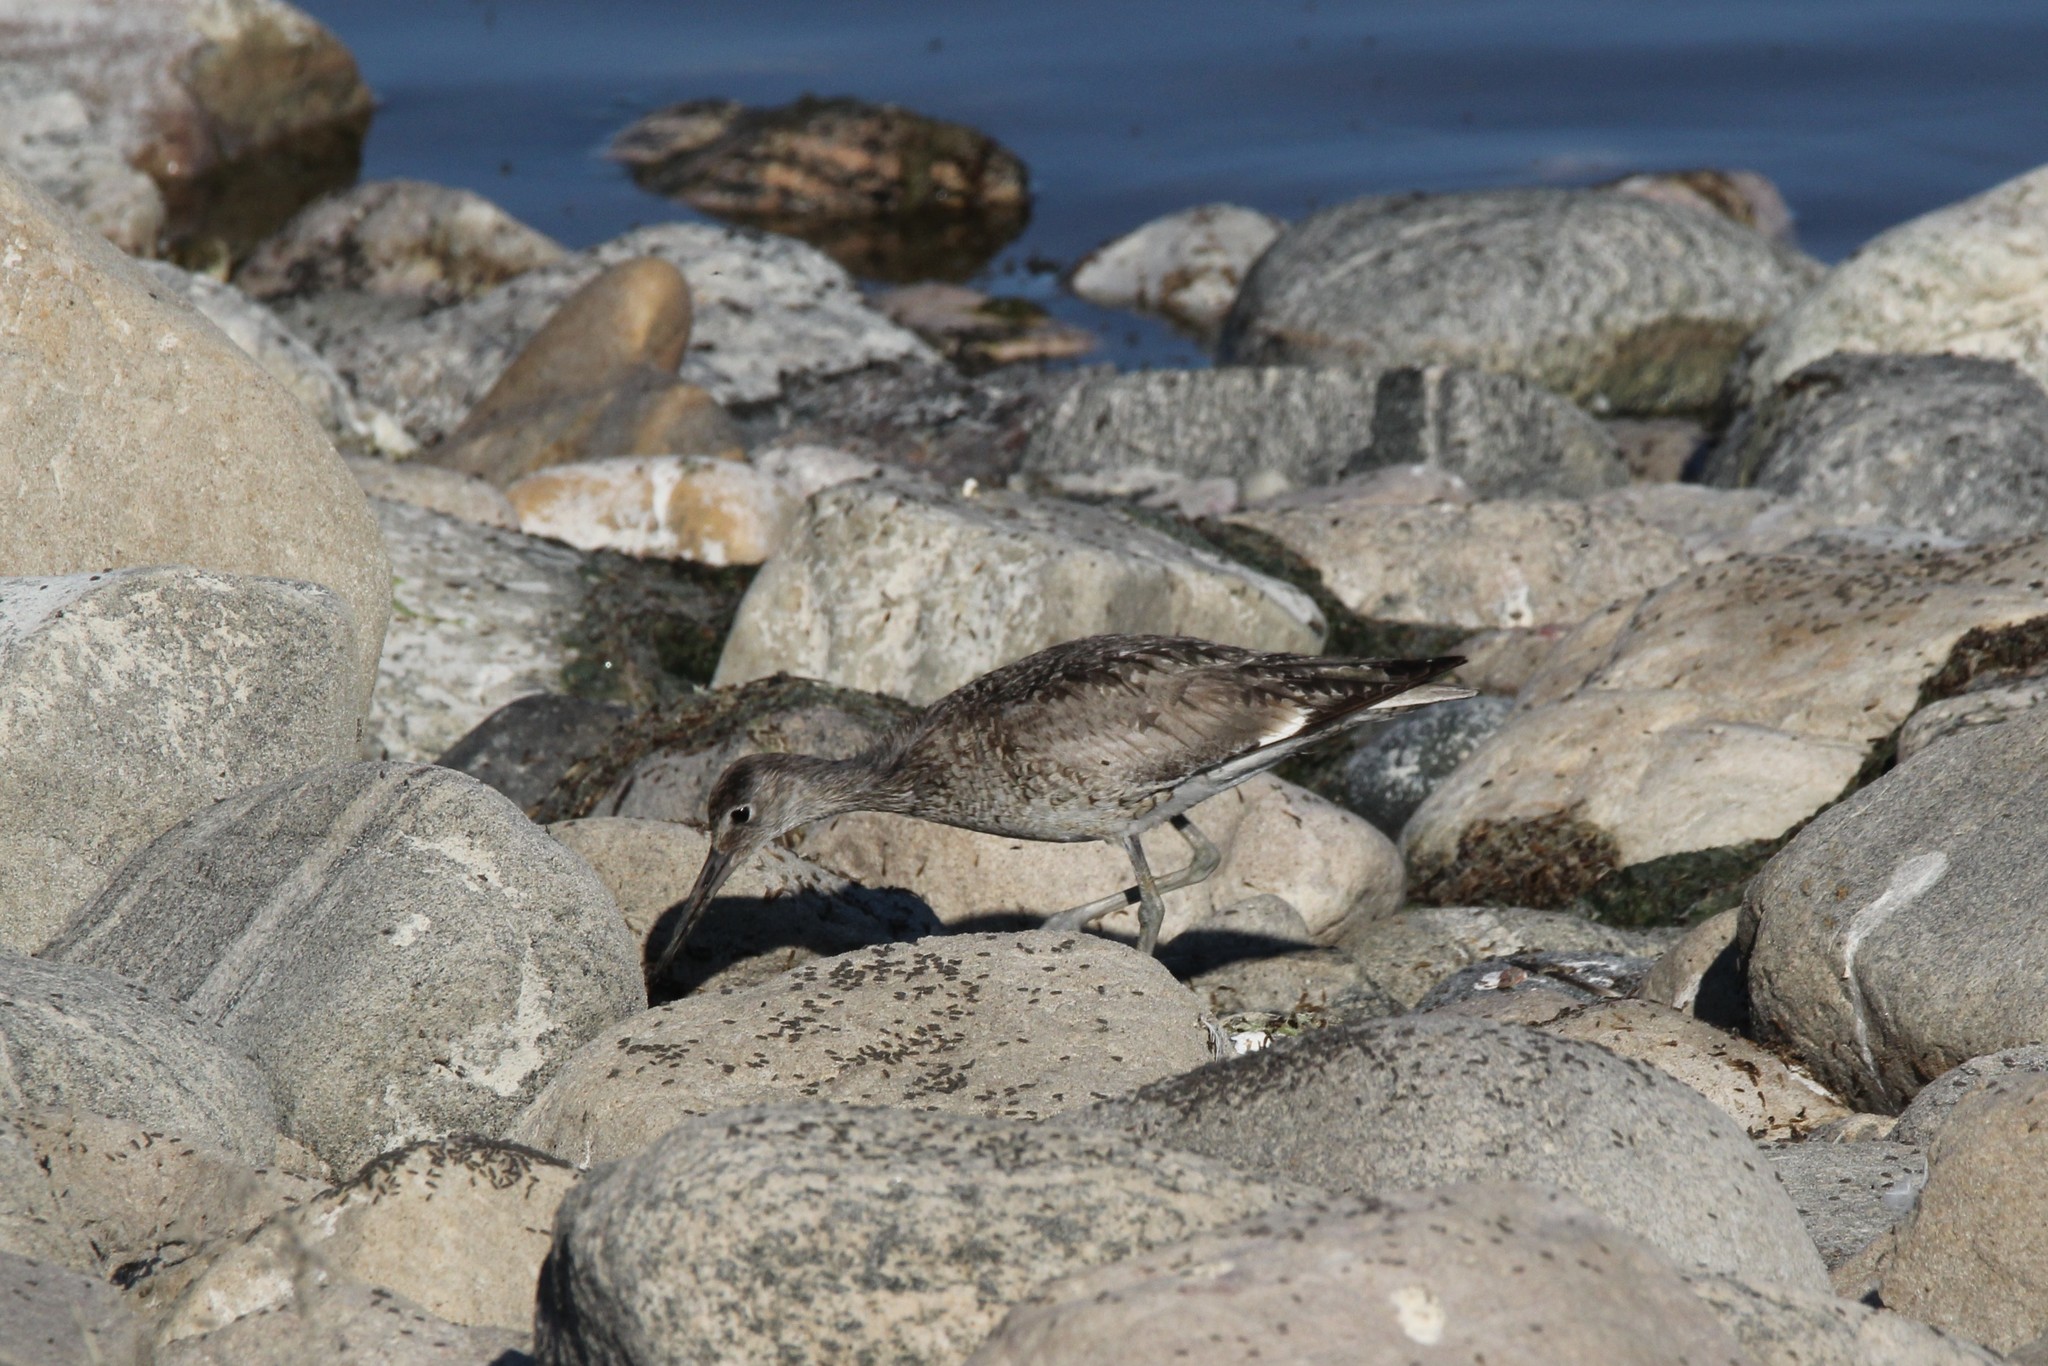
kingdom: Animalia
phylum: Chordata
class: Aves
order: Charadriiformes
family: Scolopacidae
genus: Tringa
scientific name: Tringa semipalmata
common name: Willet
